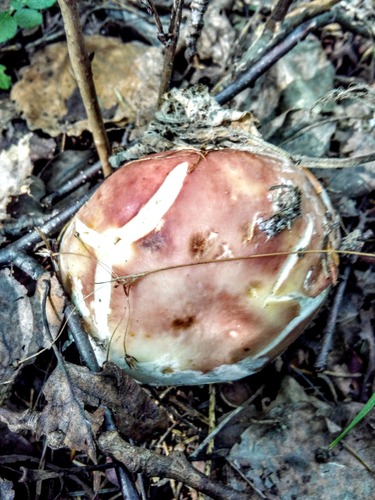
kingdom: Fungi
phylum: Basidiomycota
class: Agaricomycetes
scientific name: Agaricomycetes
